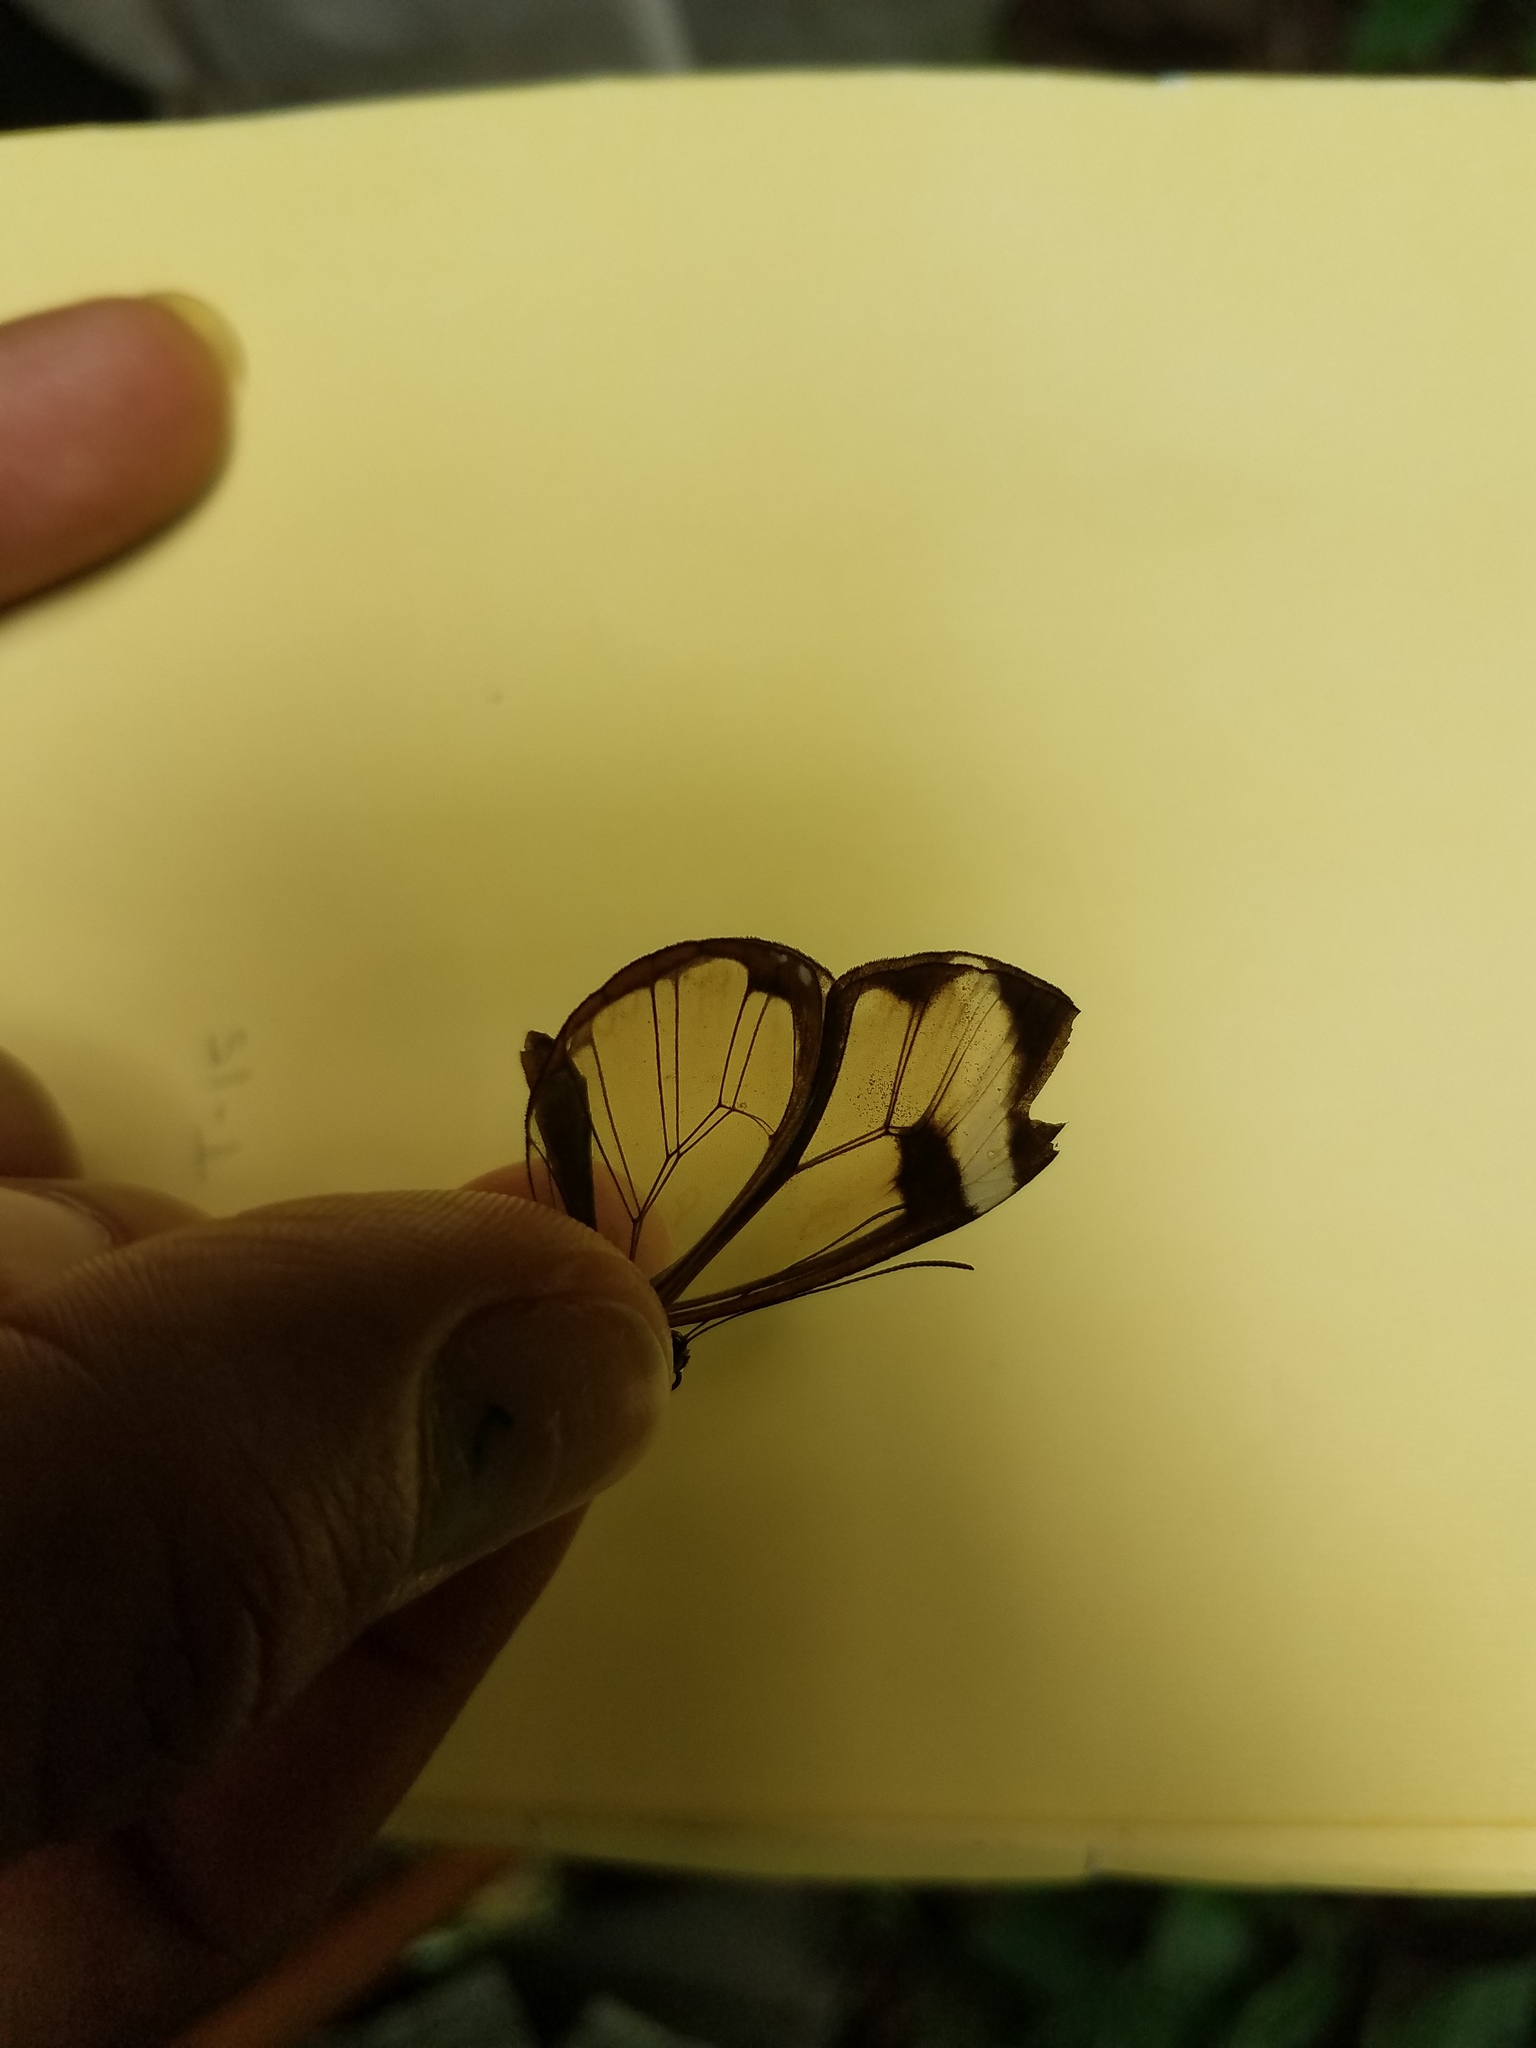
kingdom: Animalia
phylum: Arthropoda
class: Insecta
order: Lepidoptera
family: Nymphalidae
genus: Greta
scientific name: Greta morgane
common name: Thick-tipped greta
